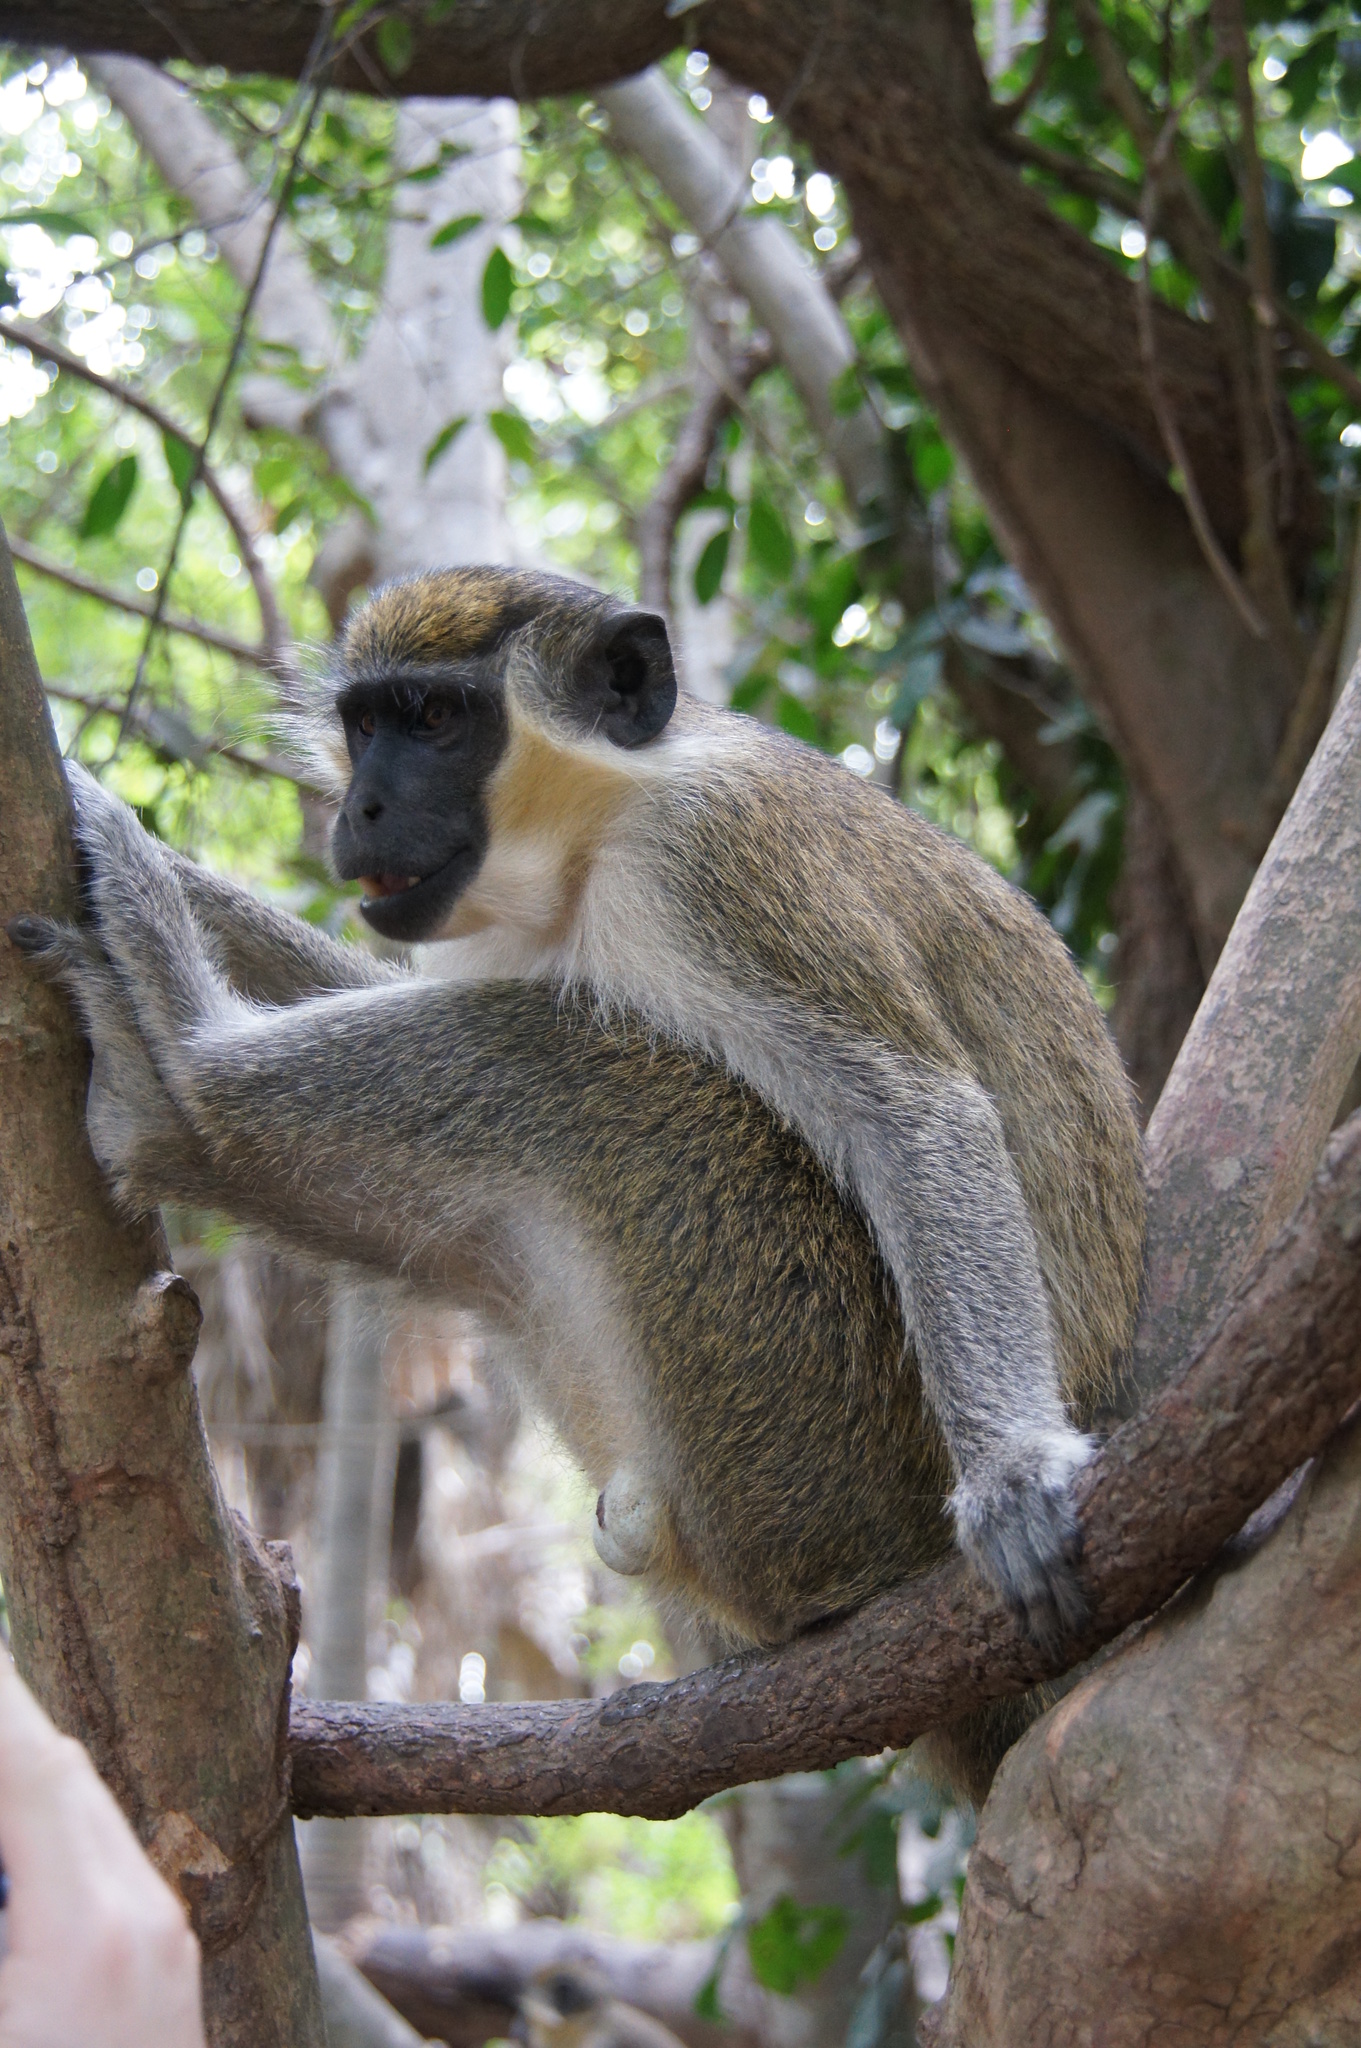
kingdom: Animalia
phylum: Chordata
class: Mammalia
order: Primates
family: Cercopithecidae
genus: Chlorocebus
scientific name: Chlorocebus sabaeus
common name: Green monkey
